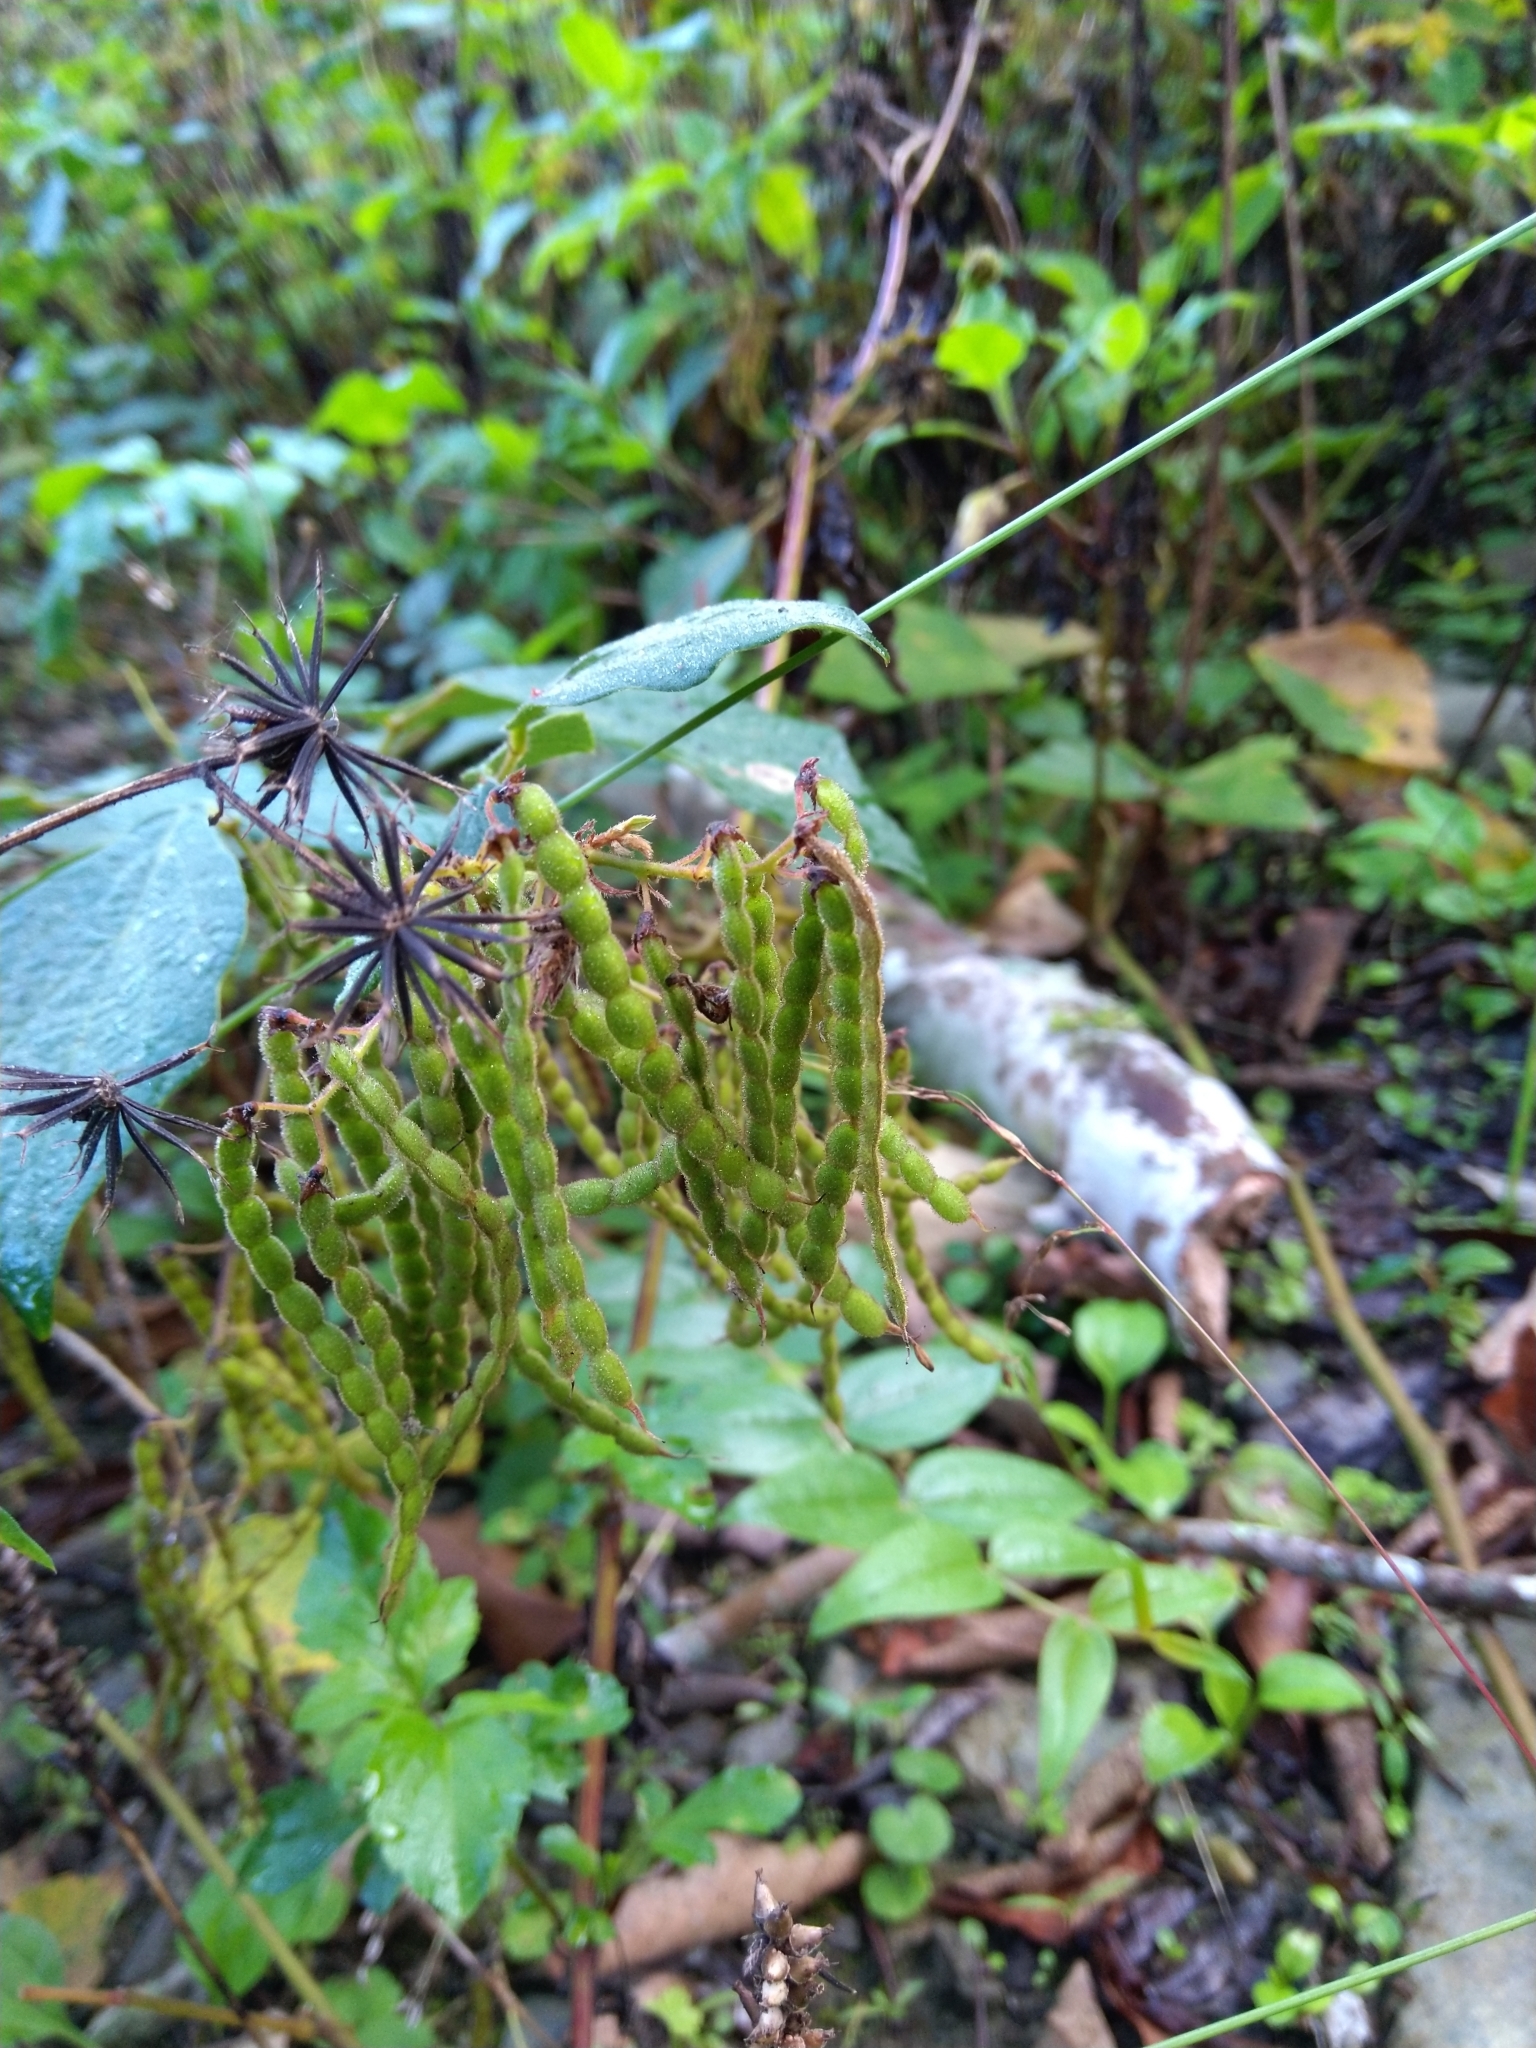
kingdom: Plantae
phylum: Tracheophyta
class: Magnoliopsida
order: Fabales
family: Fabaceae
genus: Puhuaea
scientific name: Puhuaea sequax
